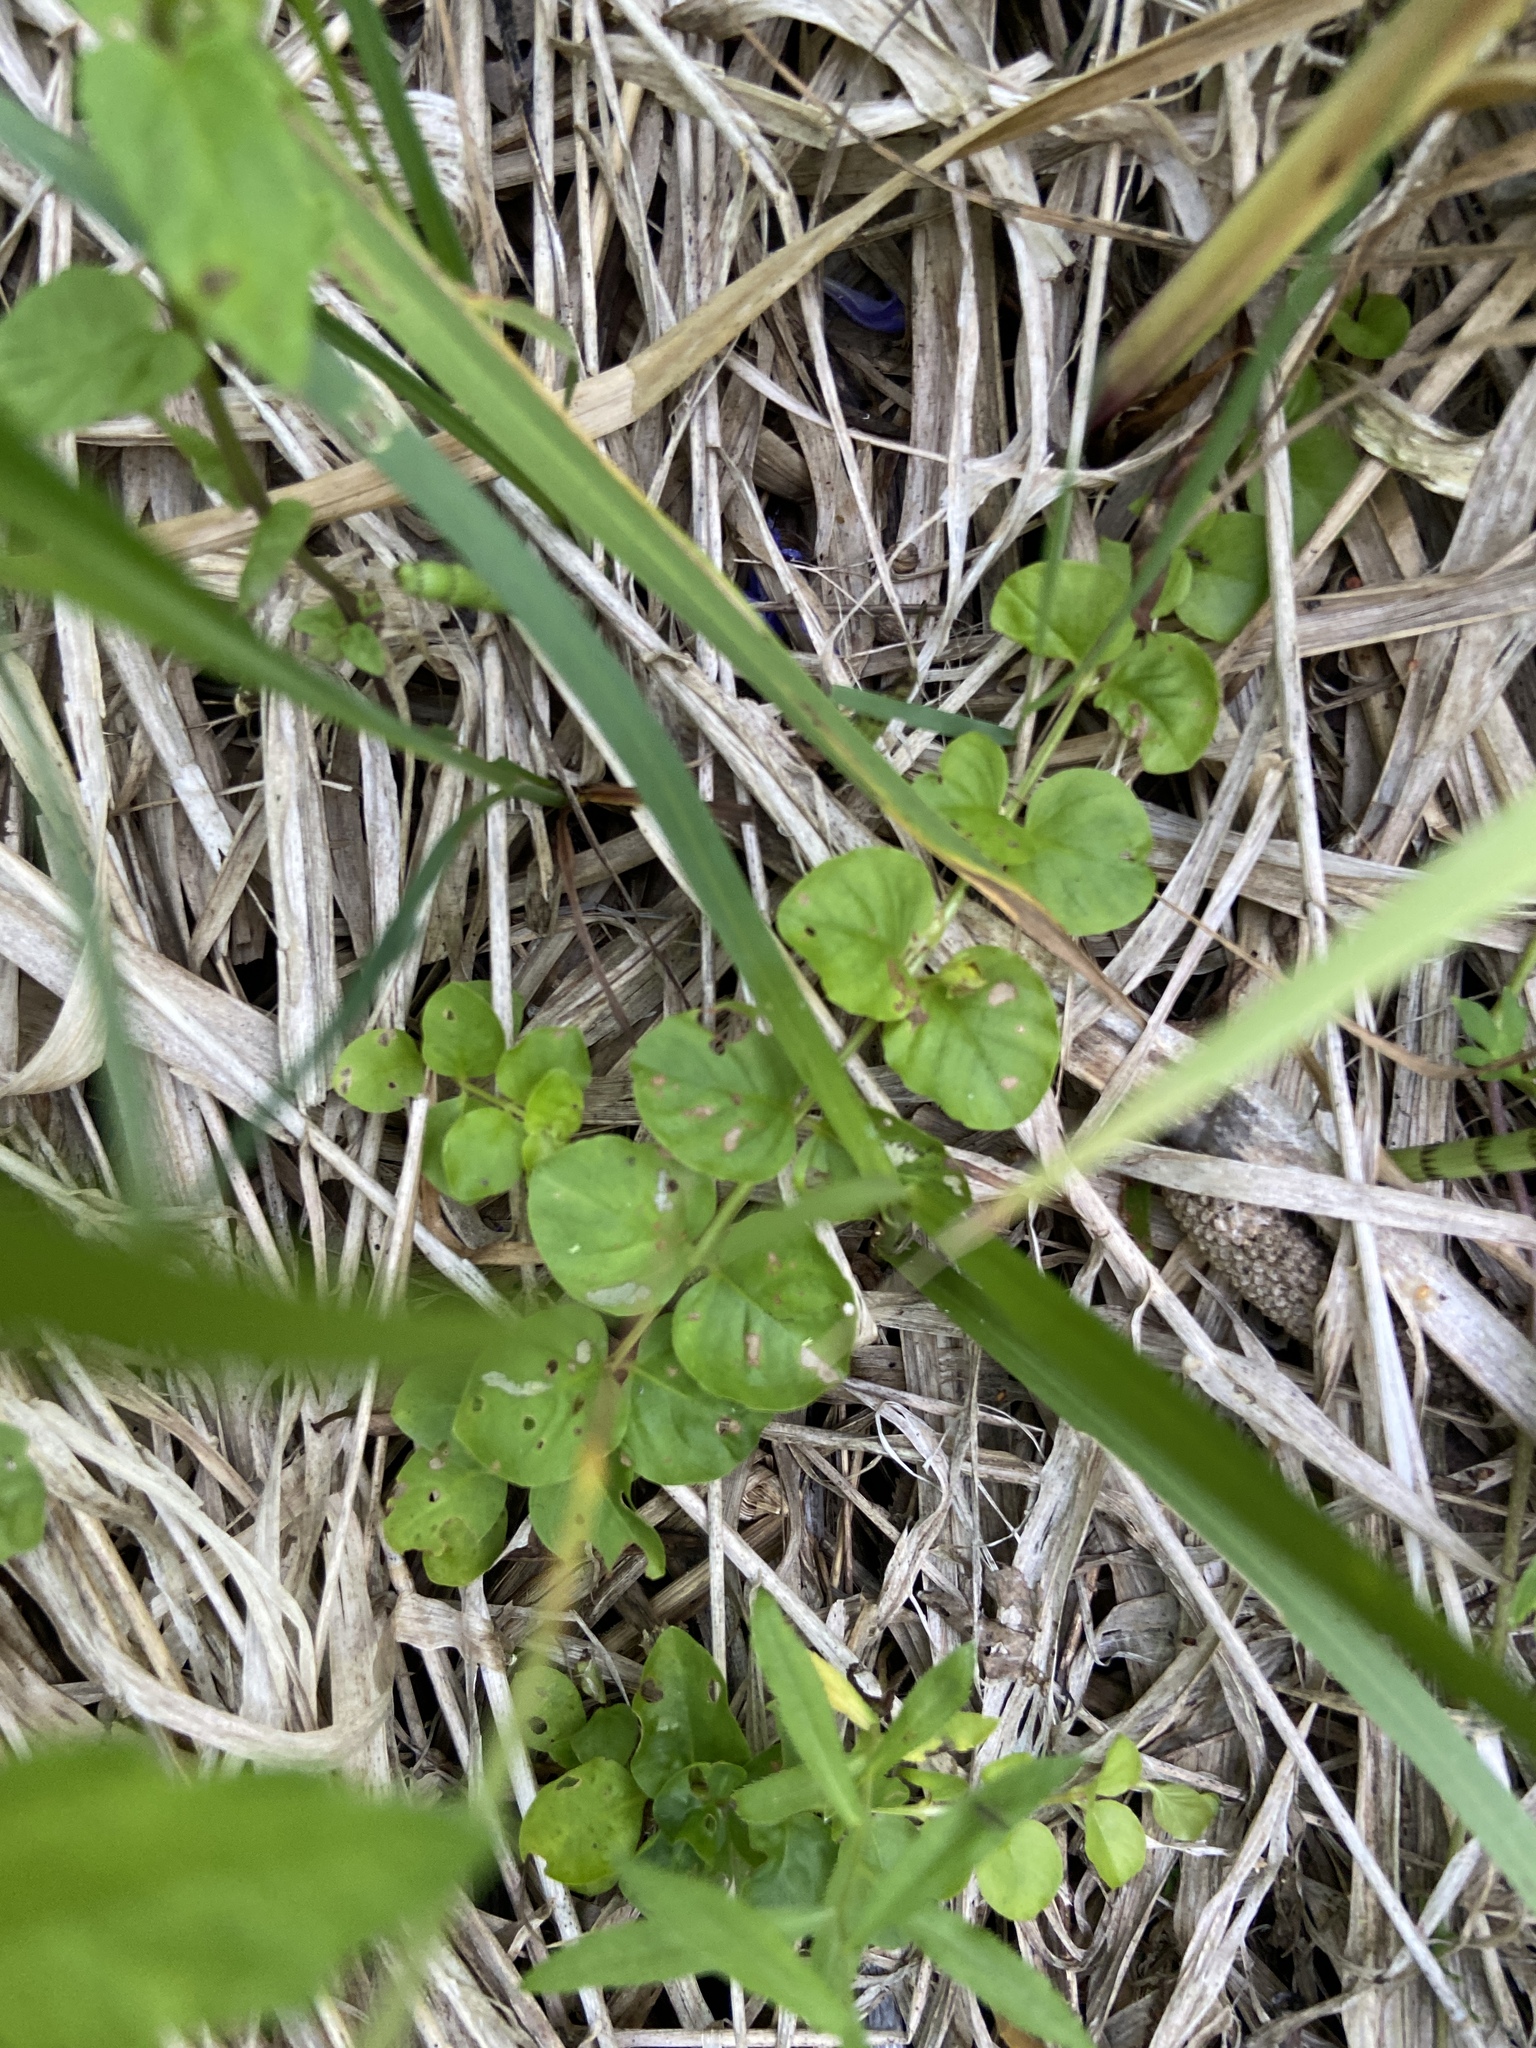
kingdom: Plantae
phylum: Tracheophyta
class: Magnoliopsida
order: Ericales
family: Primulaceae
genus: Lysimachia
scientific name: Lysimachia nummularia
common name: Moneywort
